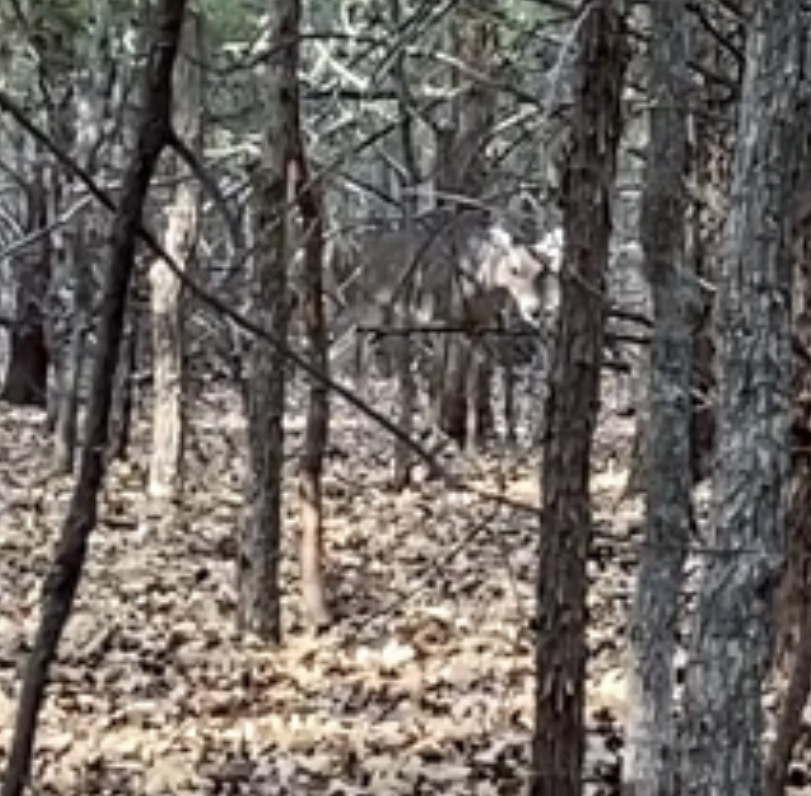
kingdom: Animalia
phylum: Chordata
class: Mammalia
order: Artiodactyla
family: Cervidae
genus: Odocoileus
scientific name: Odocoileus virginianus
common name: White-tailed deer
